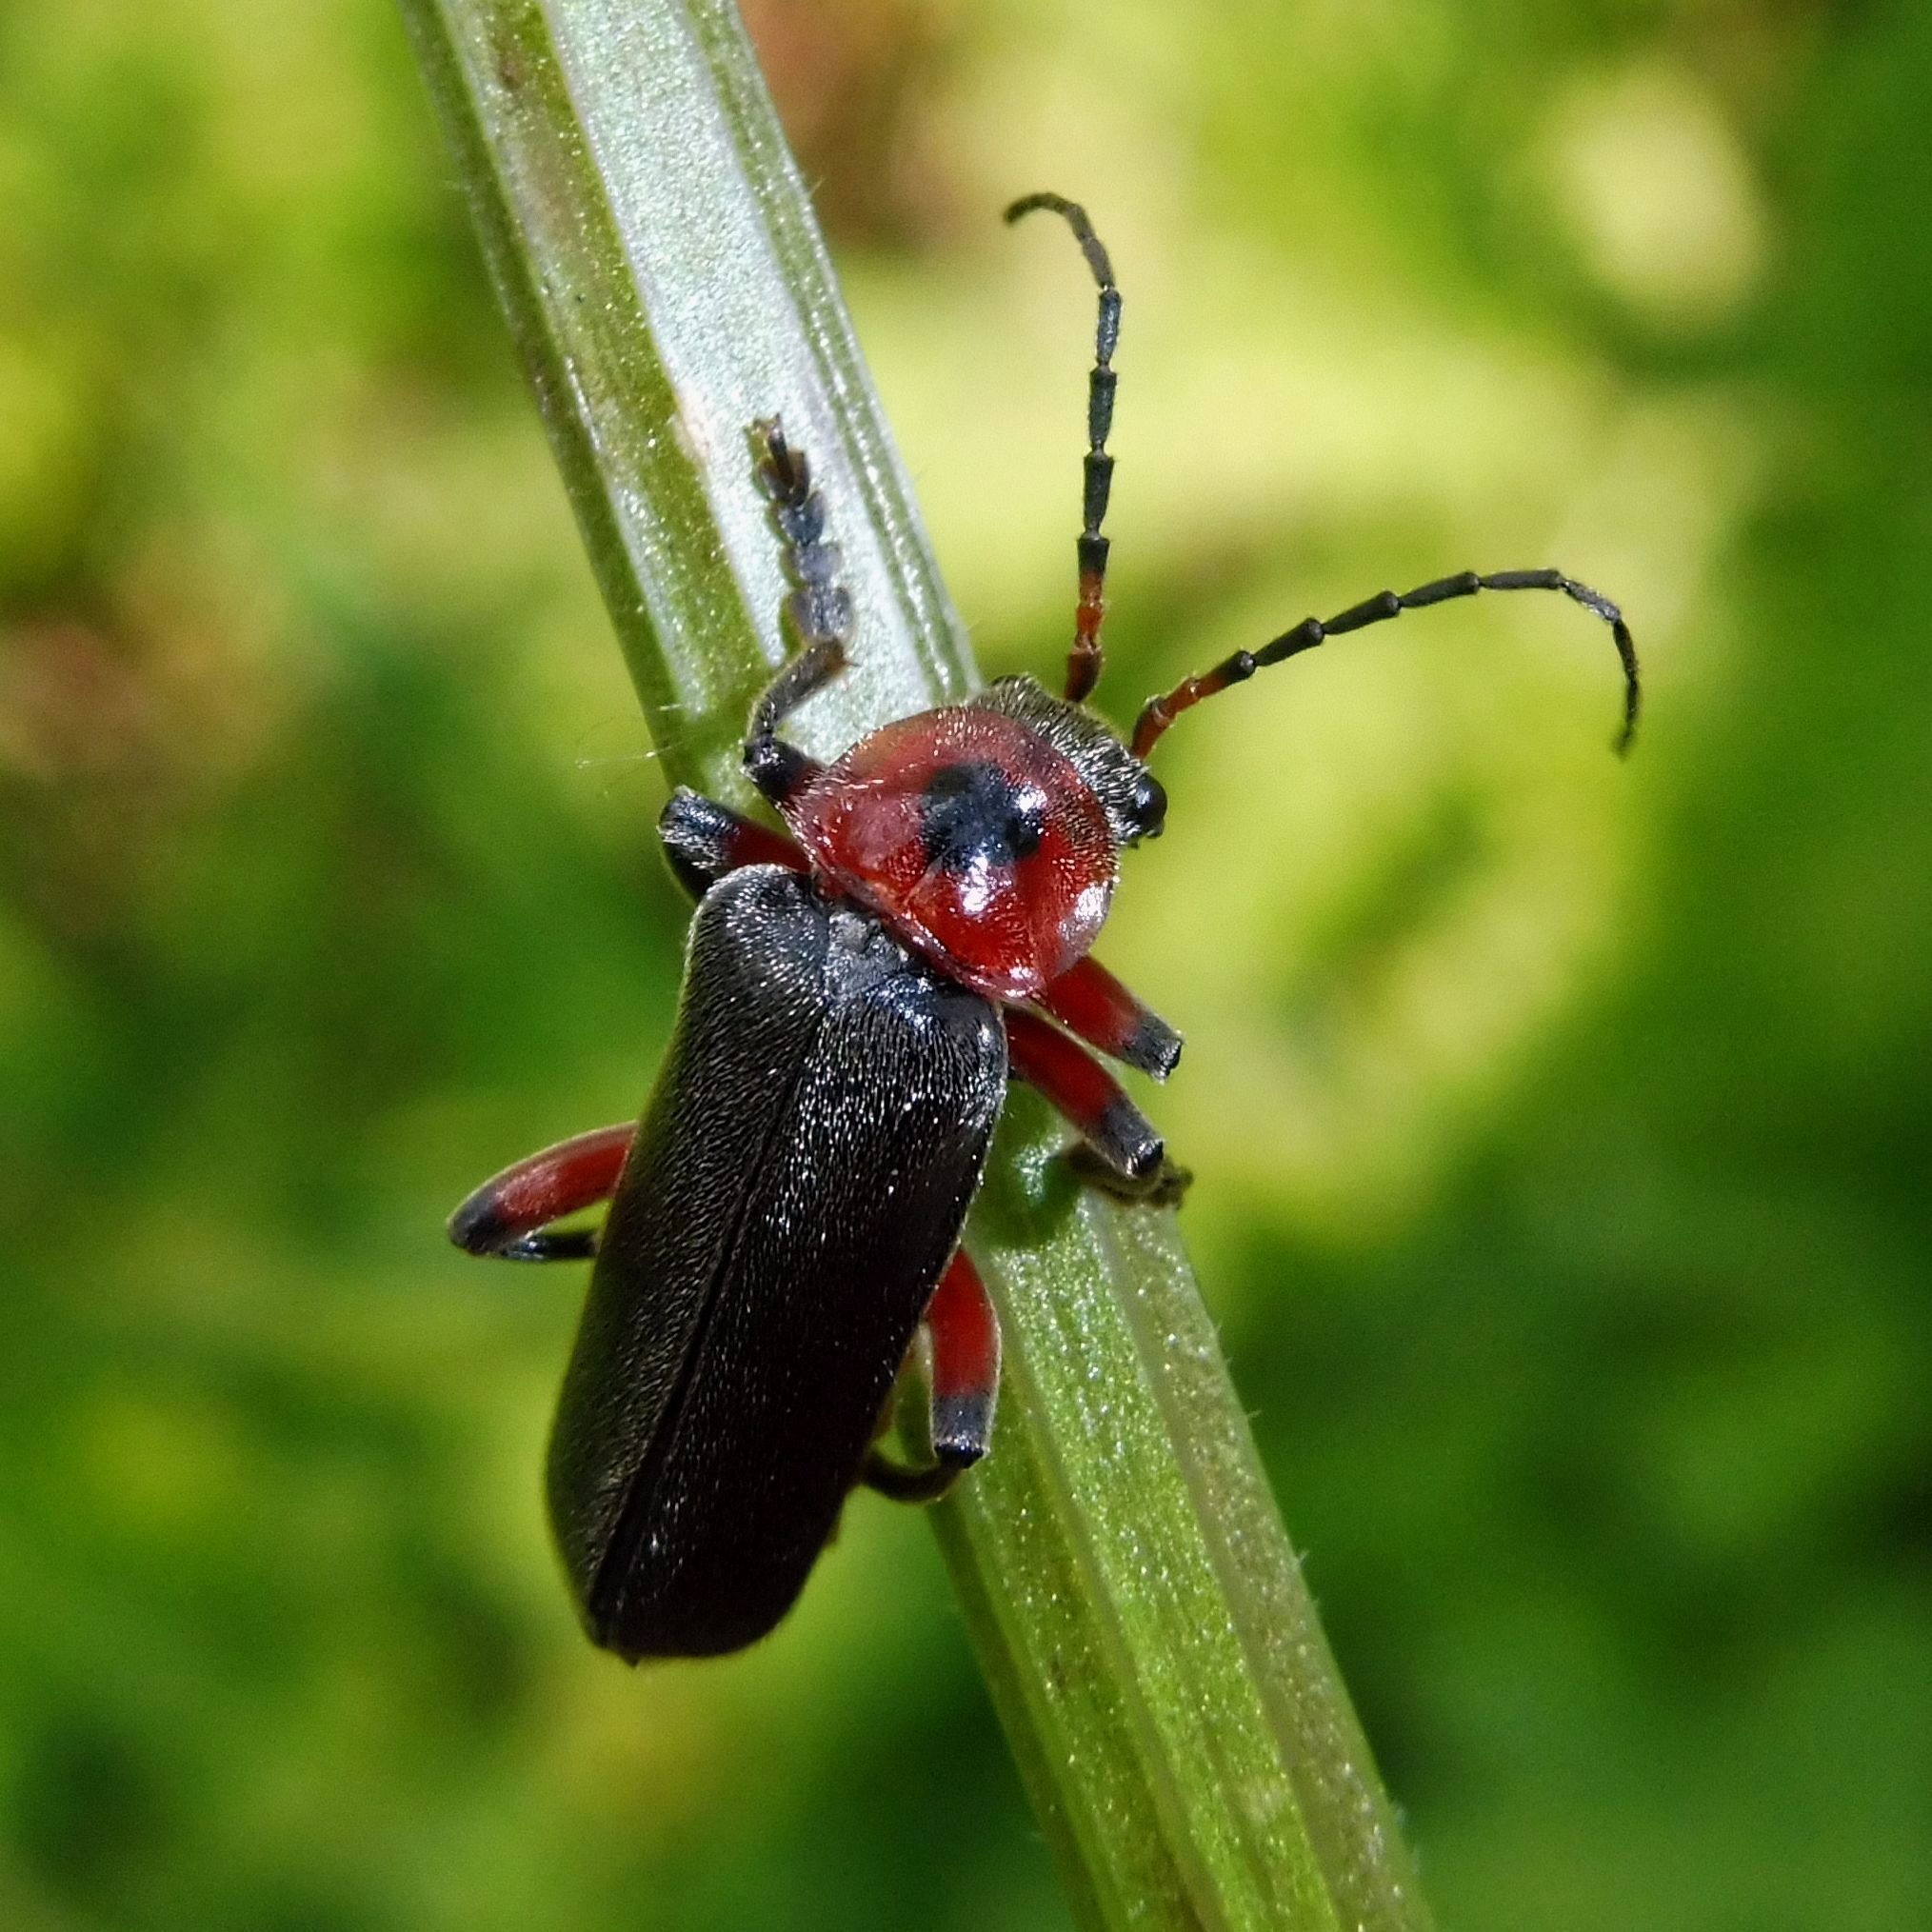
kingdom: Animalia
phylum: Arthropoda
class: Insecta
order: Coleoptera
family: Cantharidae
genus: Cantharis
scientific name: Cantharis rustica
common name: Soldier beetle
